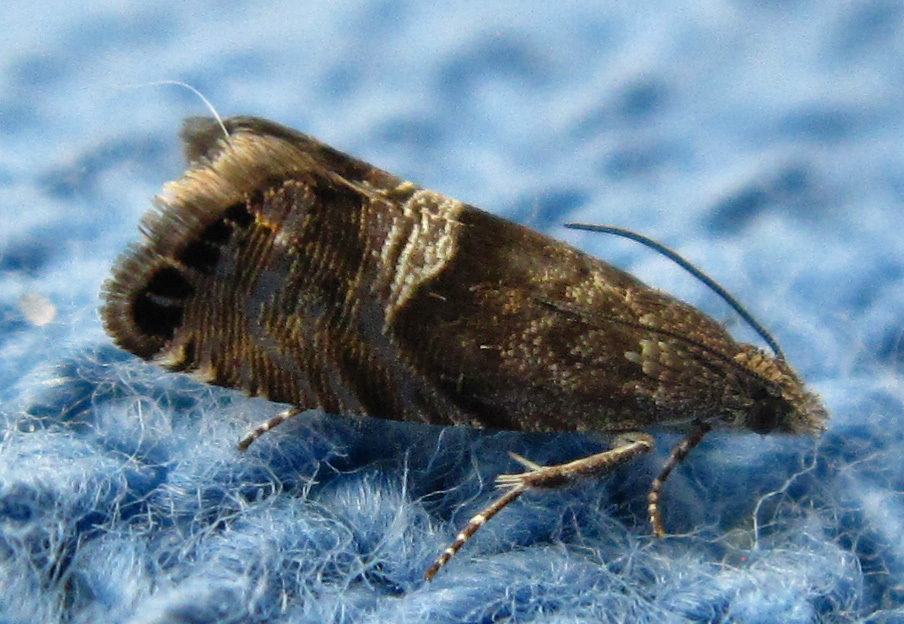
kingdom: Animalia
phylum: Arthropoda
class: Insecta
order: Lepidoptera
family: Tortricidae
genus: Sereda
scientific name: Sereda tautana
